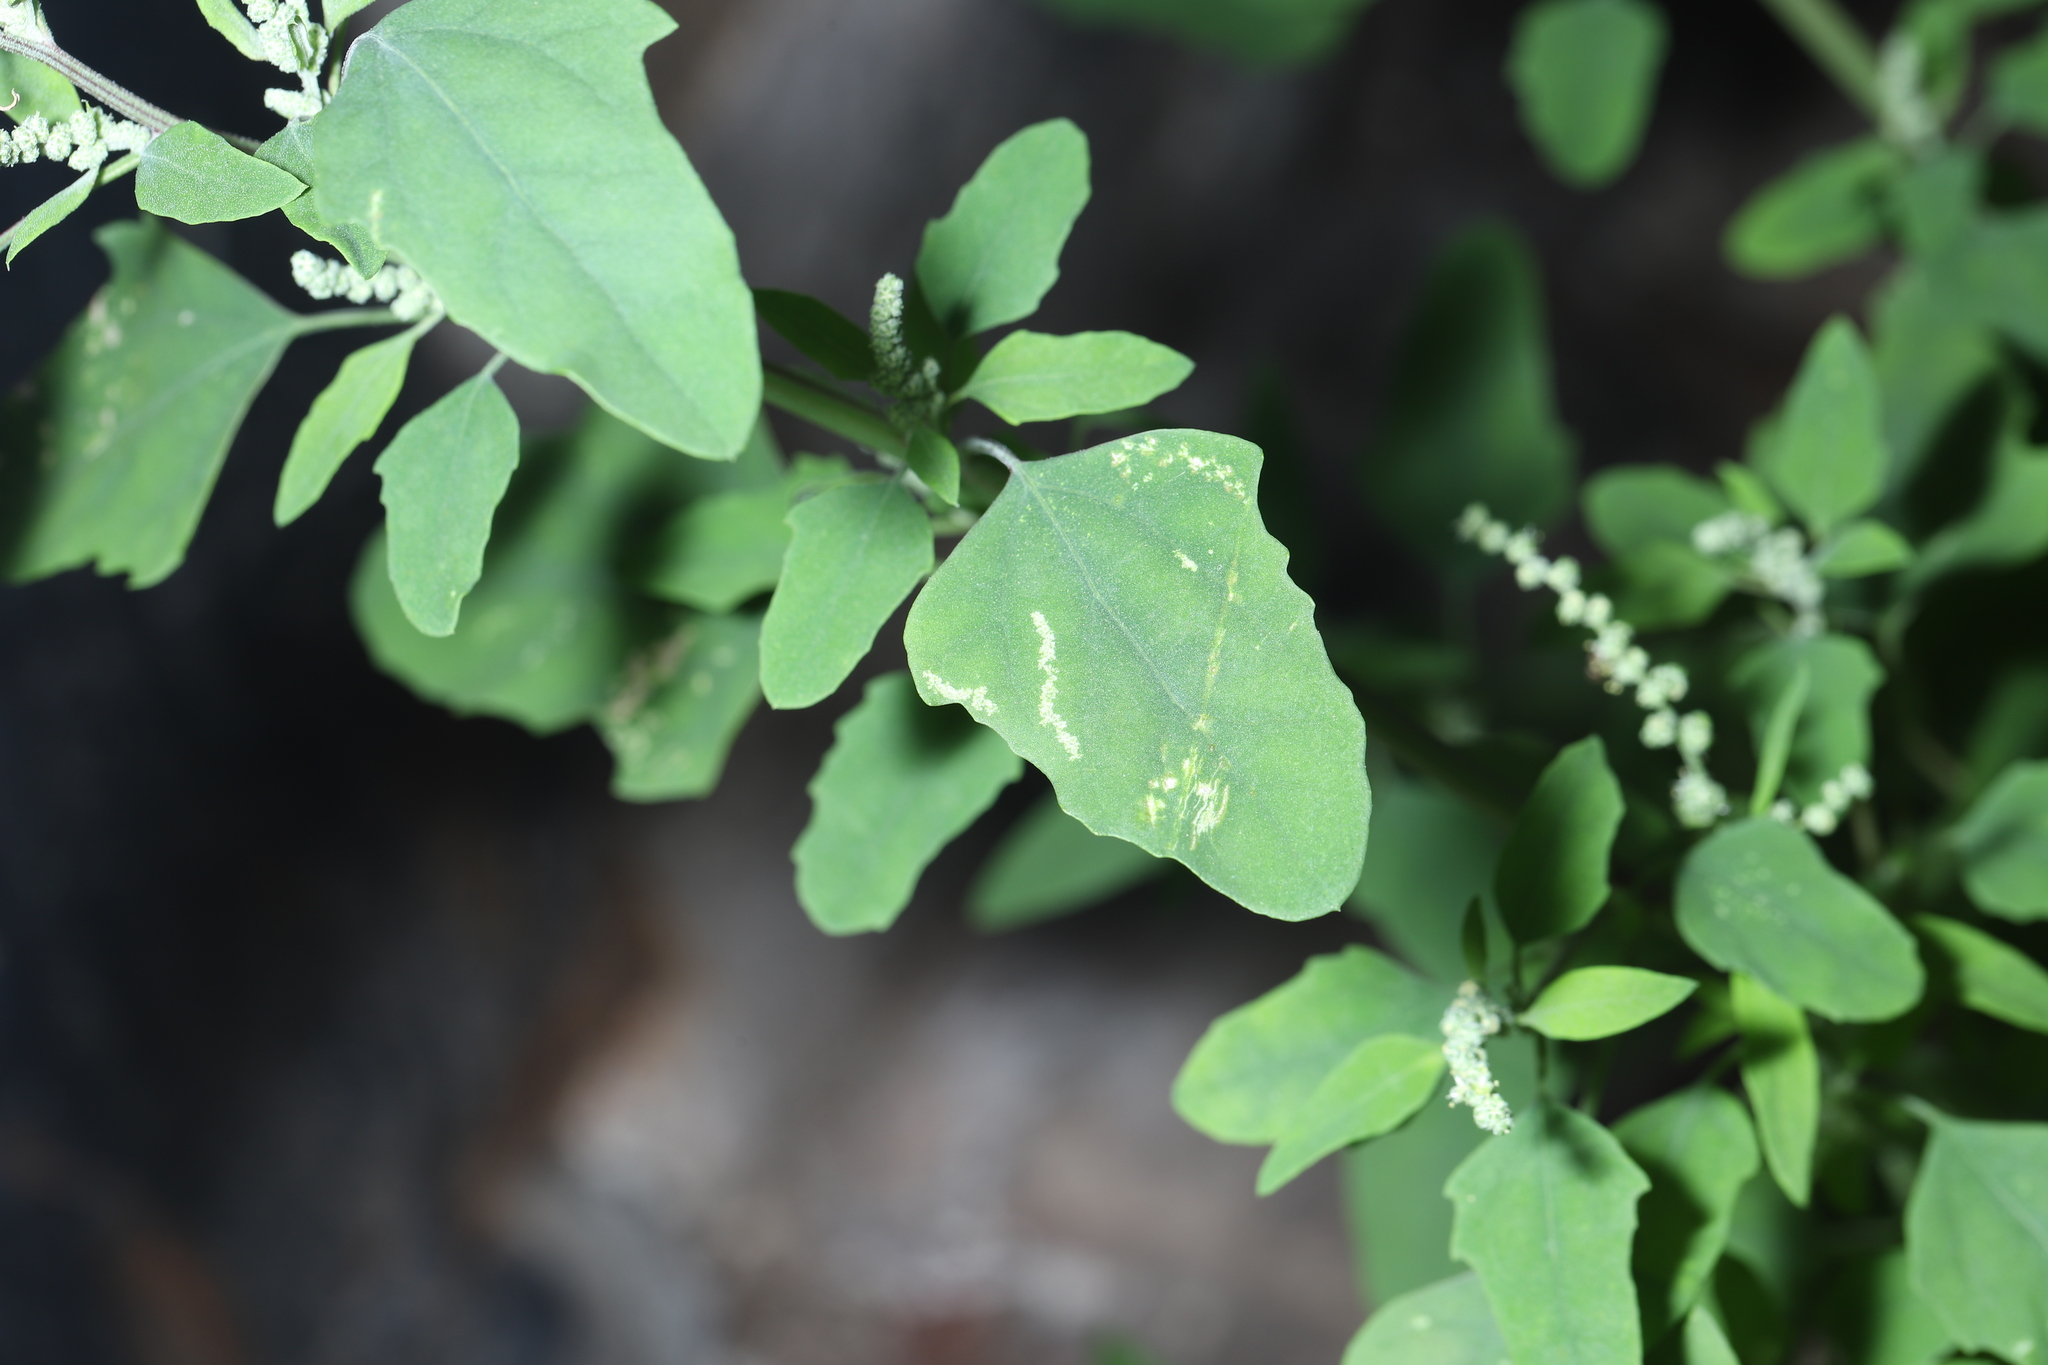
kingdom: Plantae
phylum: Tracheophyta
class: Magnoliopsida
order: Caryophyllales
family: Amaranthaceae
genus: Chenopodium
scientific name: Chenopodium album
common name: Fat-hen
